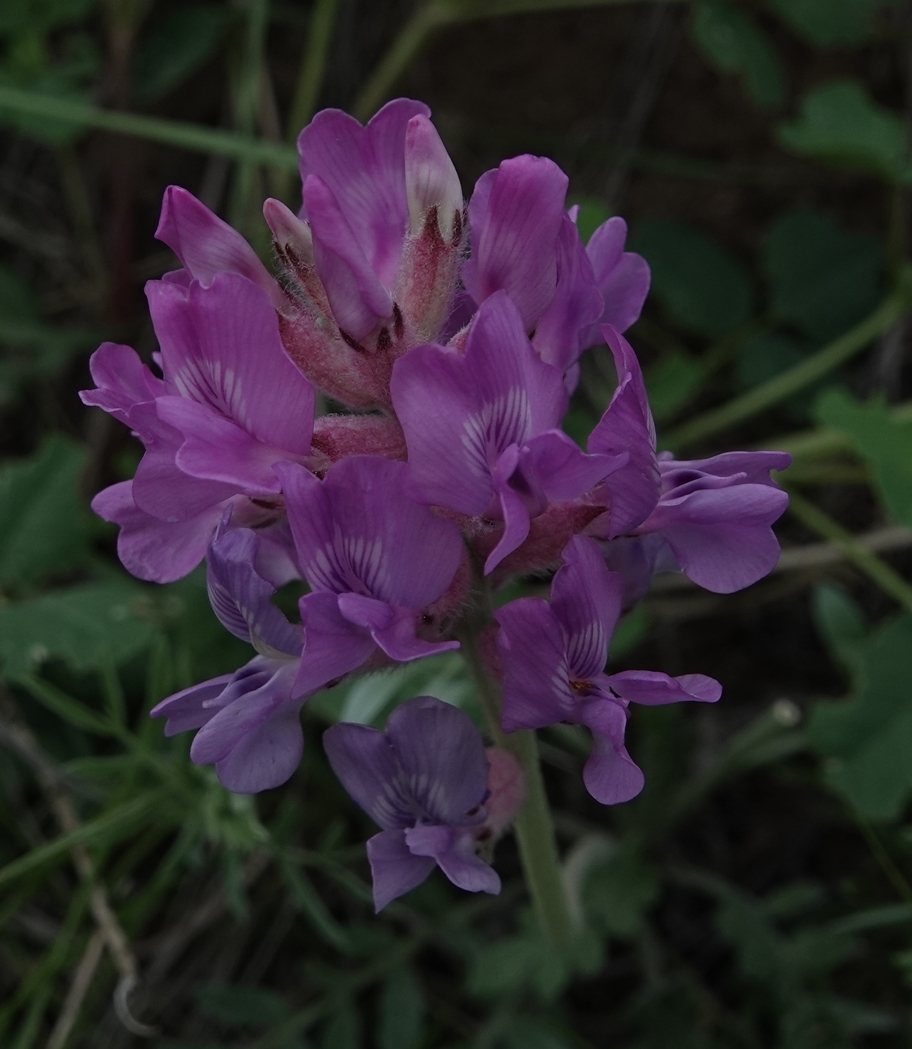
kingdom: Plantae
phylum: Tracheophyta
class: Magnoliopsida
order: Fabales
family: Fabaceae
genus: Oxytropis
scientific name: Oxytropis lambertii
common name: Purple locoweed
